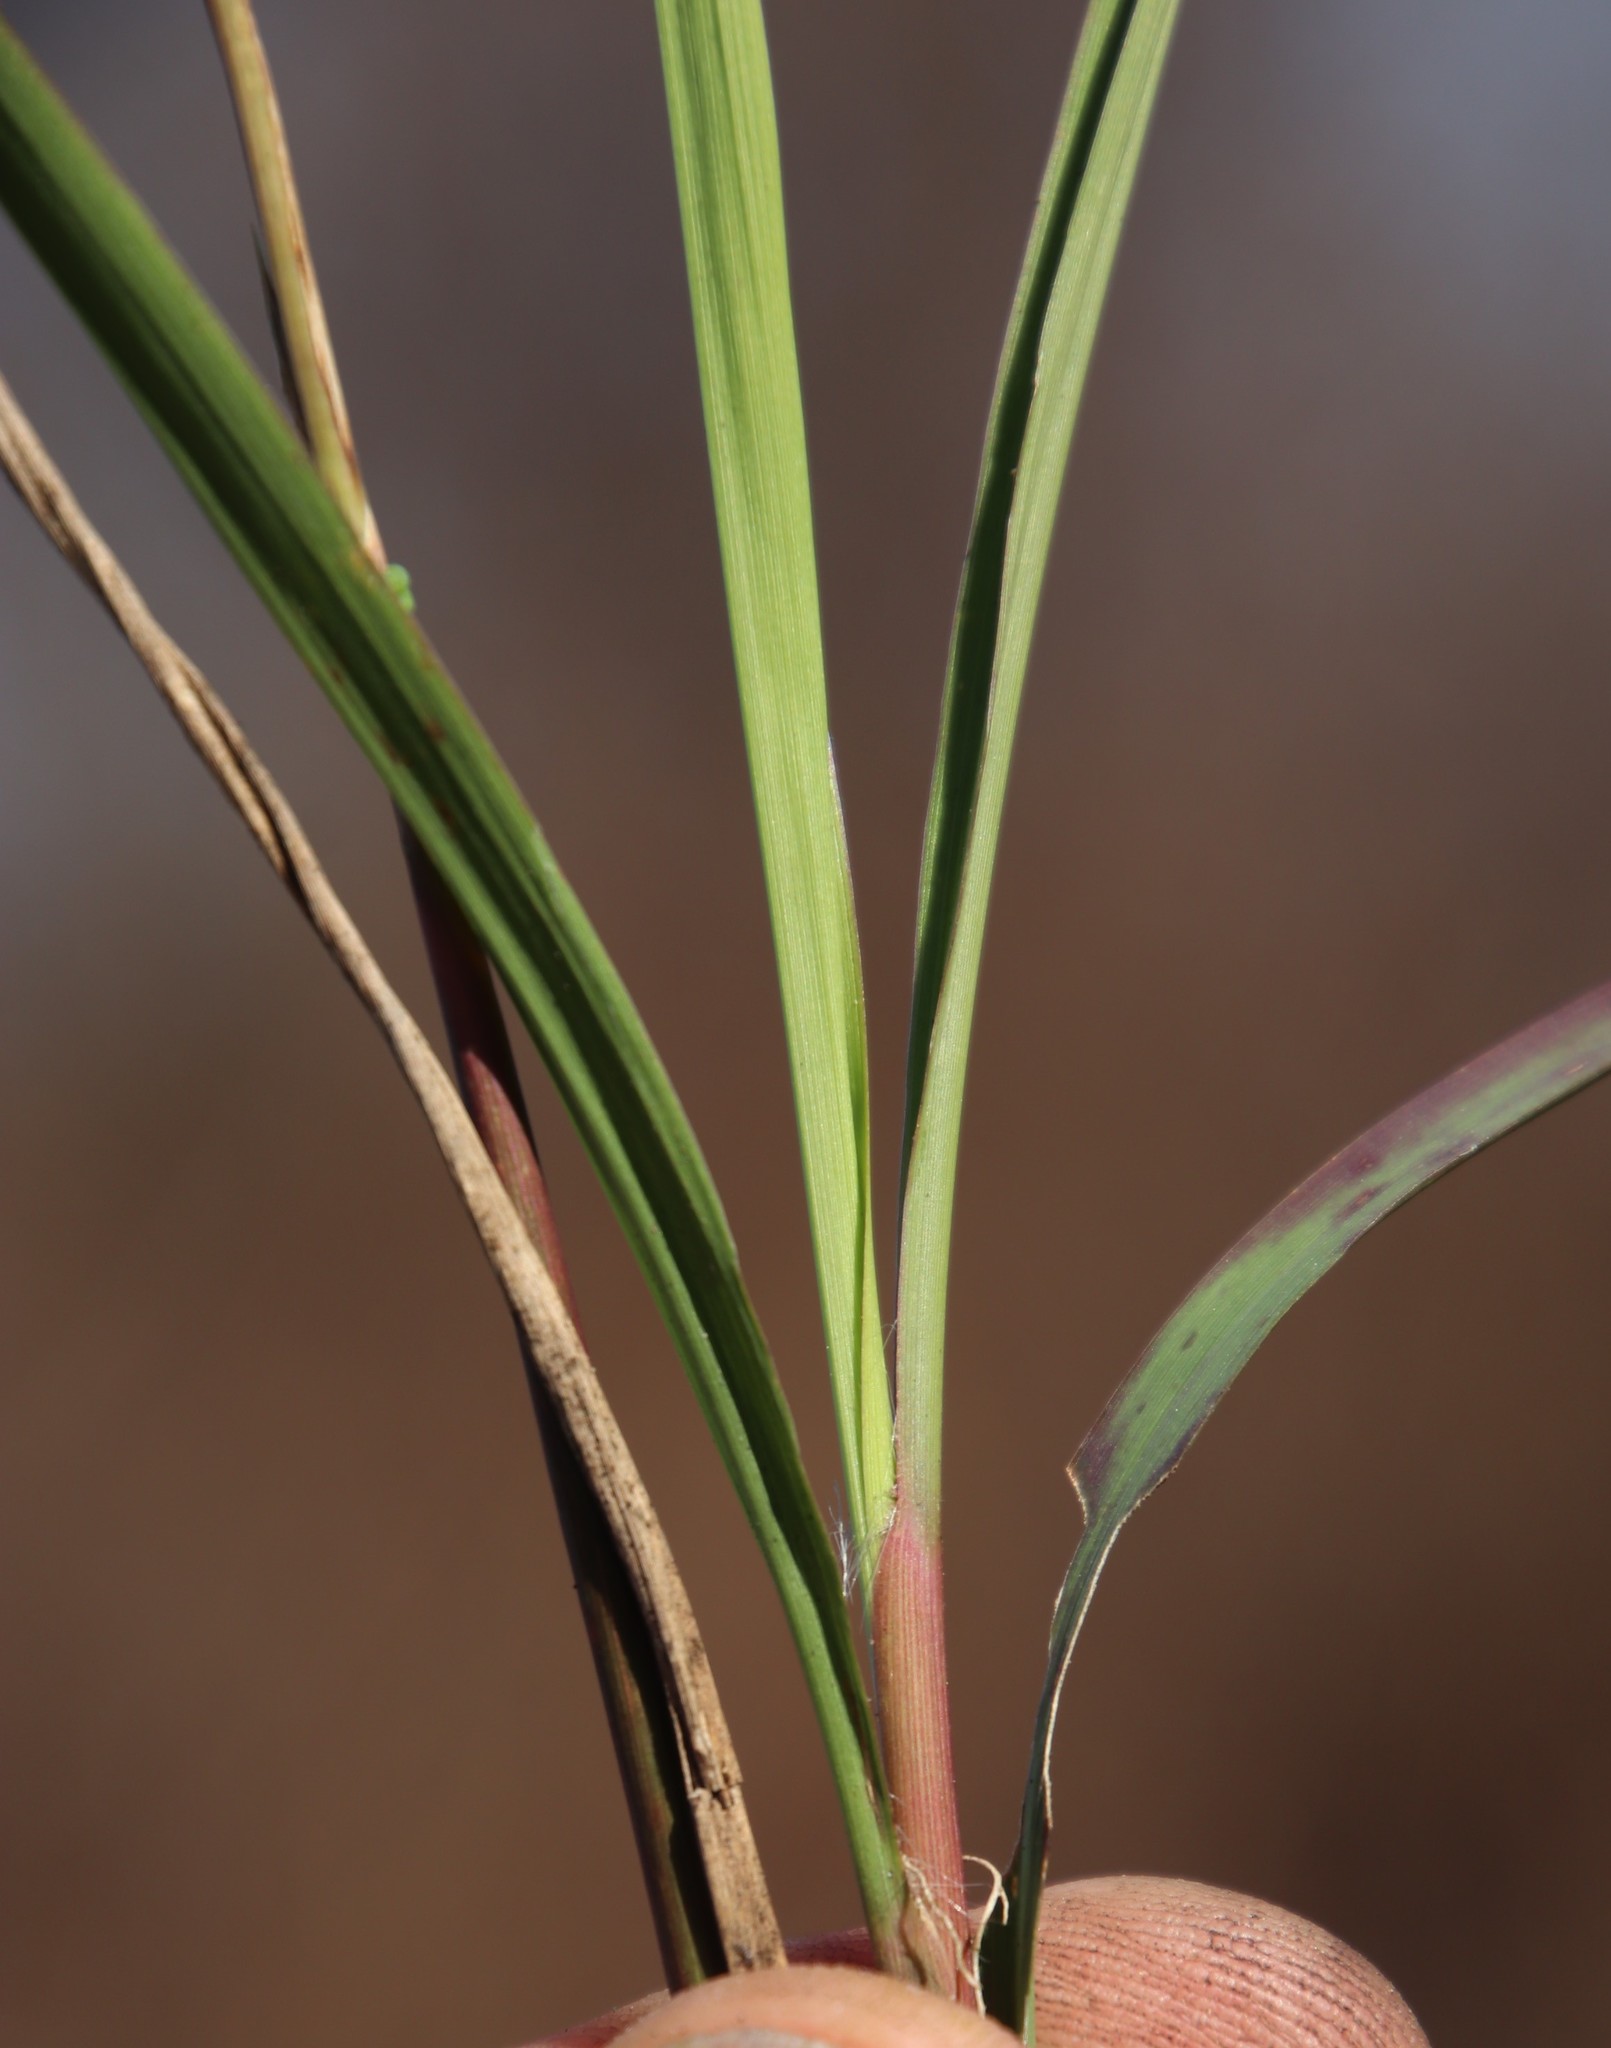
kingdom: Plantae
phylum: Tracheophyta
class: Liliopsida
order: Poales
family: Poaceae
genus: Imperata
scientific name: Imperata cylindrica
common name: Cogongrass
